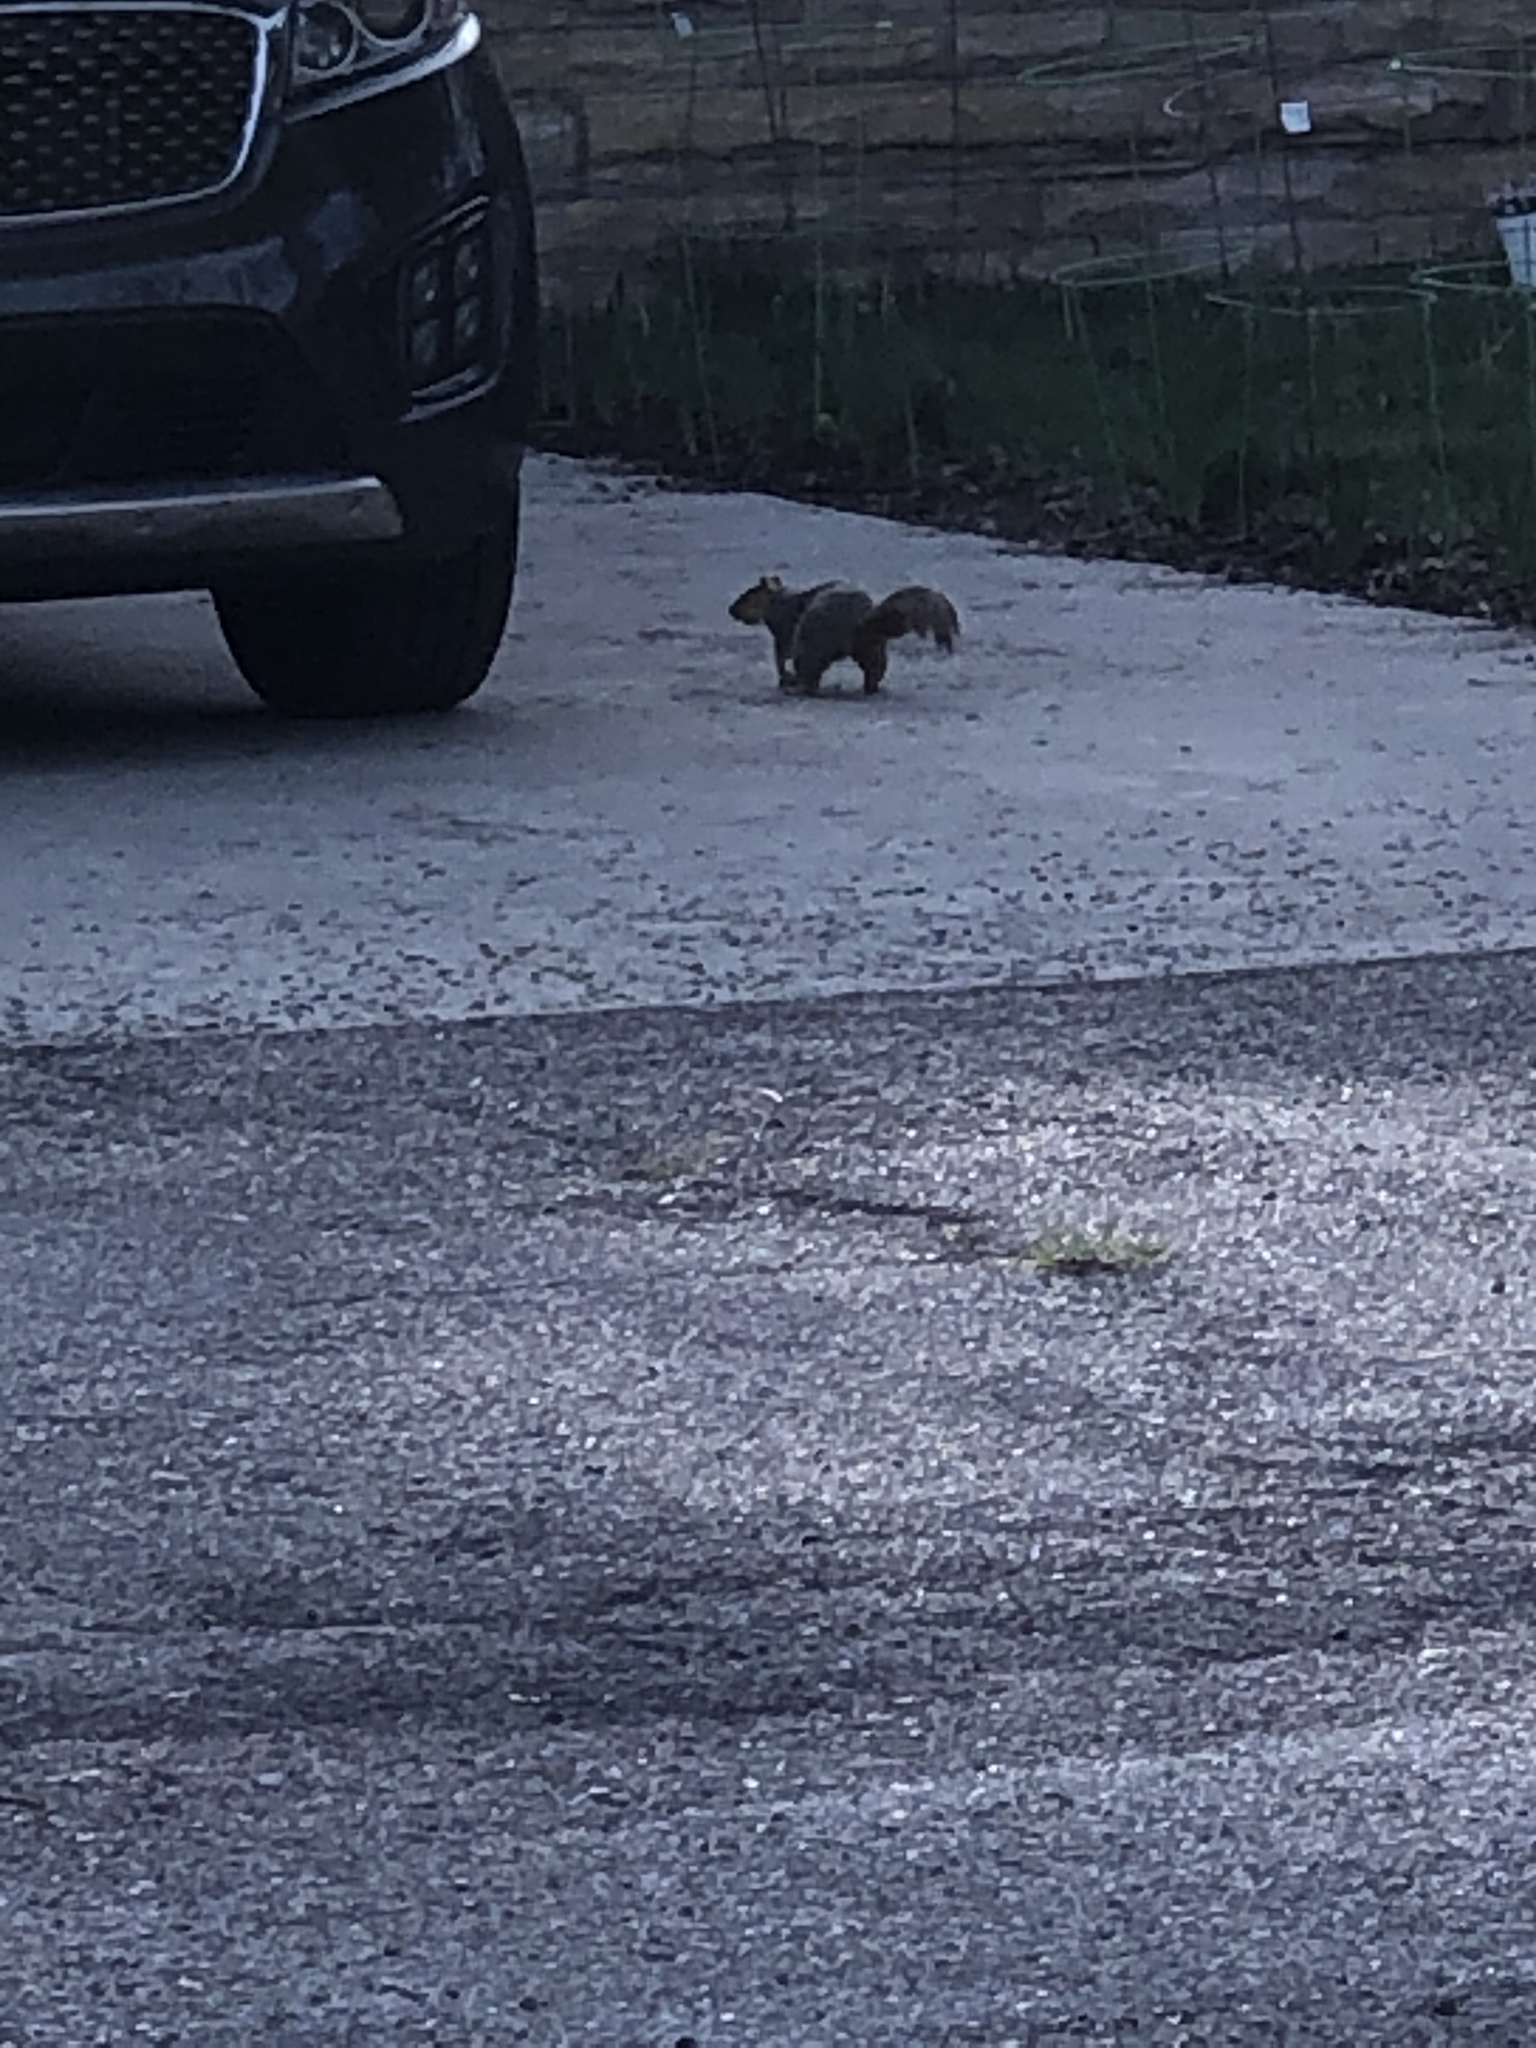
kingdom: Animalia
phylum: Chordata
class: Mammalia
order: Rodentia
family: Sciuridae
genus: Sciurus
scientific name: Sciurus niger
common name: Fox squirrel
